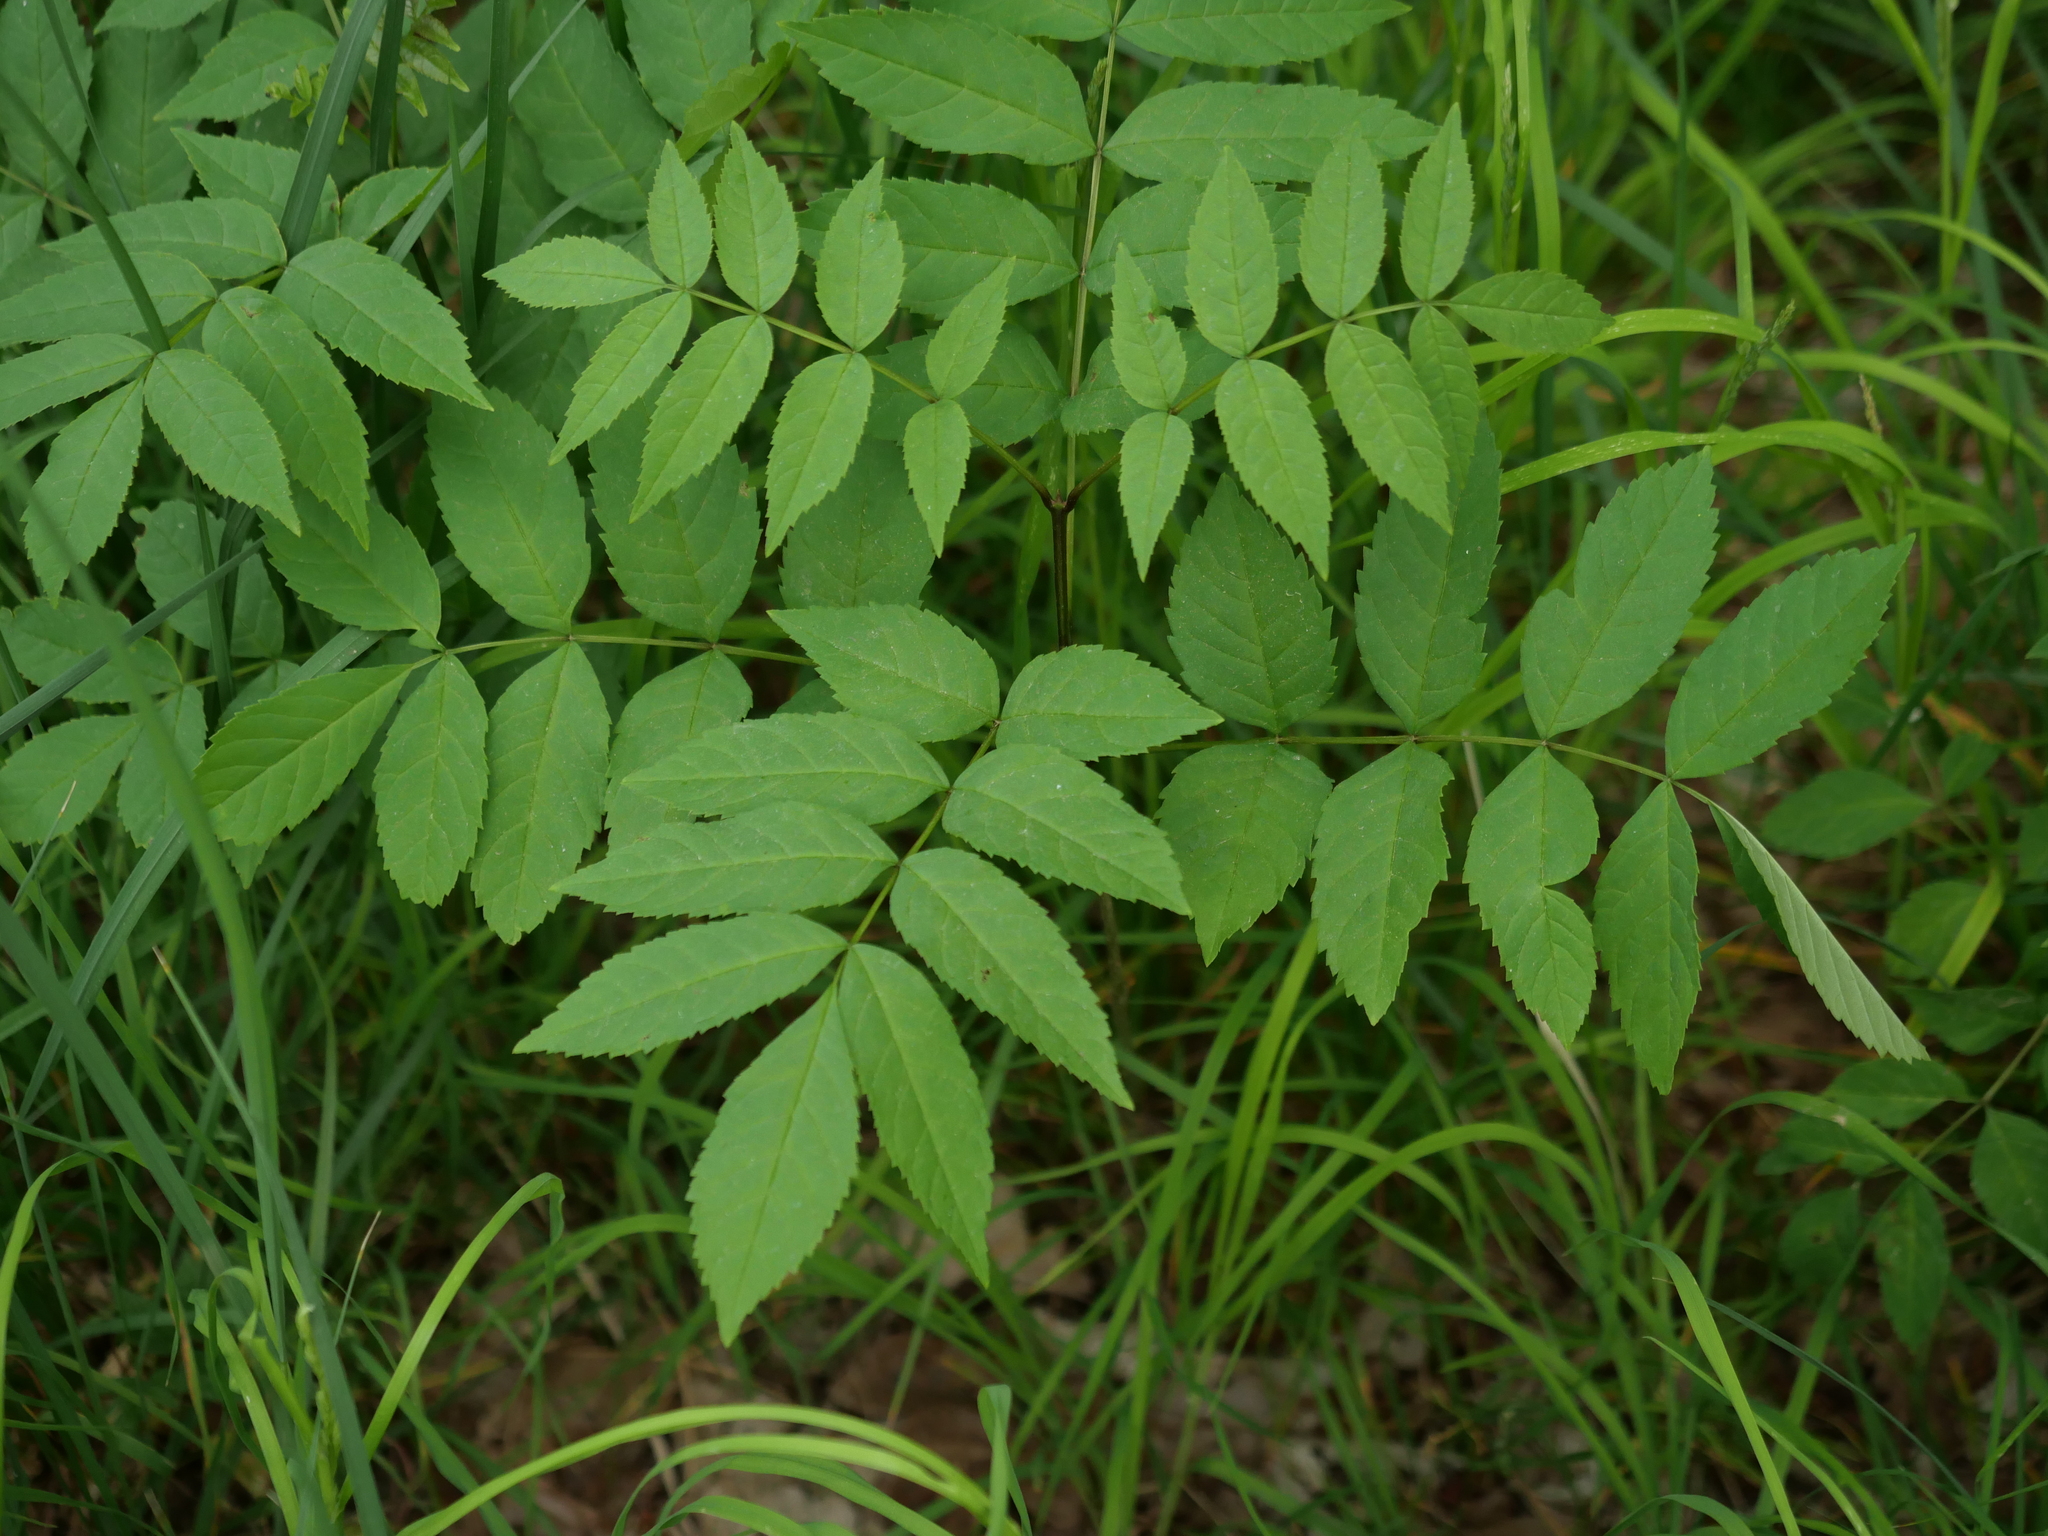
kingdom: Plantae
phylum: Tracheophyta
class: Magnoliopsida
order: Lamiales
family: Oleaceae
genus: Fraxinus
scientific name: Fraxinus excelsior
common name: European ash
